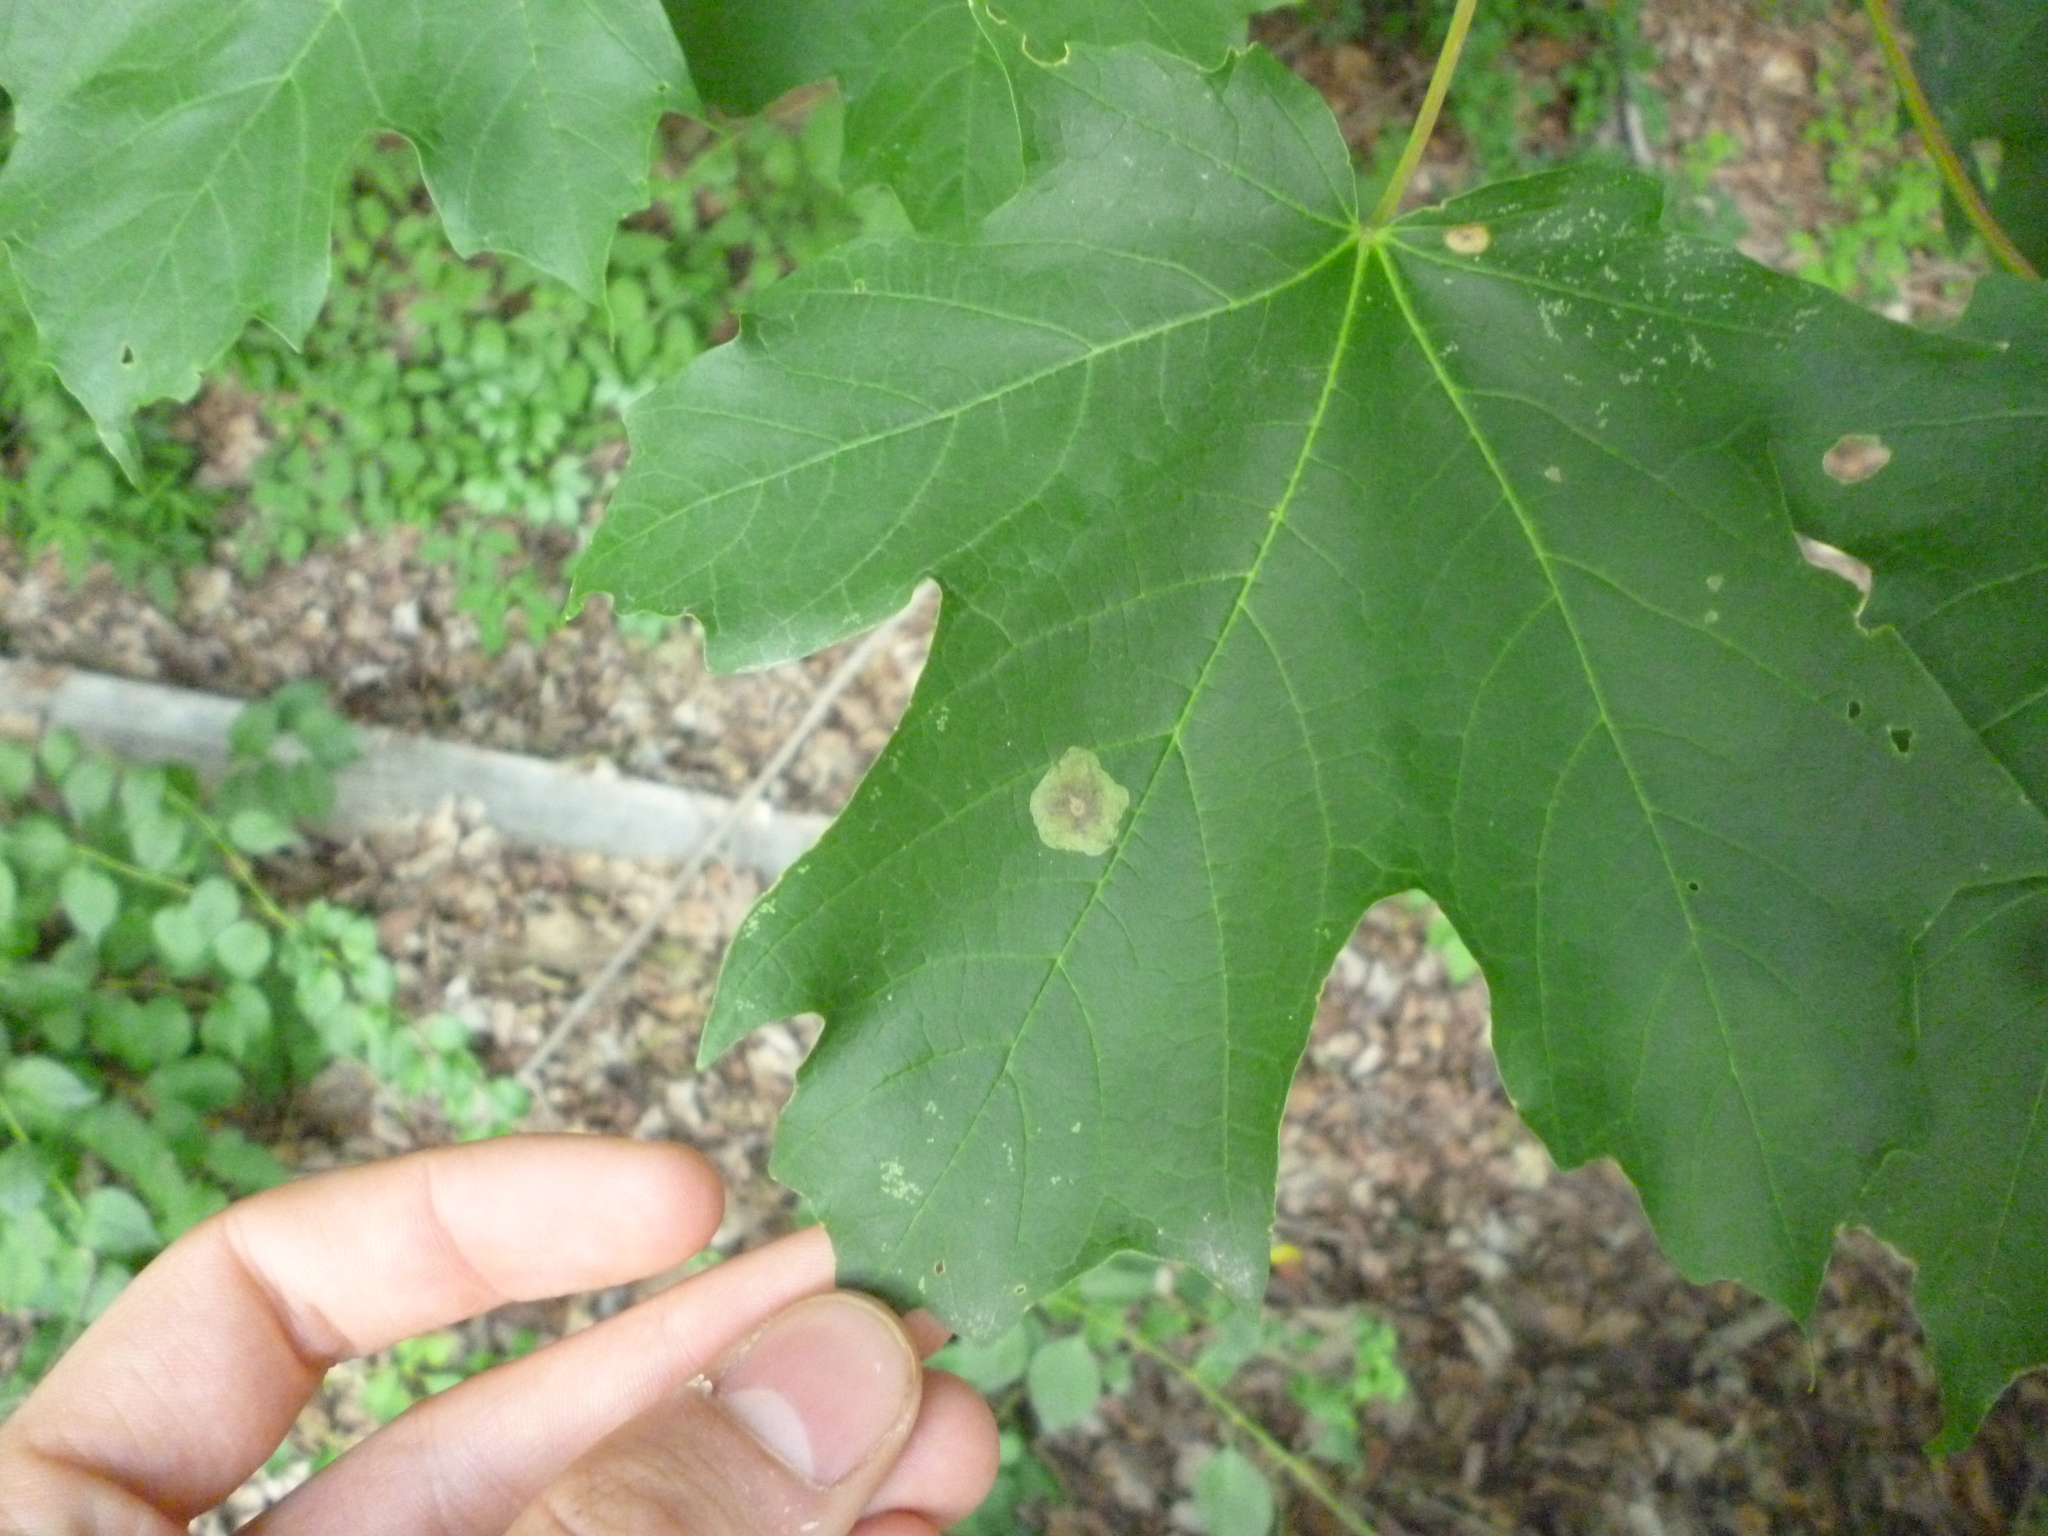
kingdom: Plantae
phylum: Tracheophyta
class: Magnoliopsida
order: Sapindales
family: Sapindaceae
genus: Acer
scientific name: Acer saccharum
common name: Sugar maple
